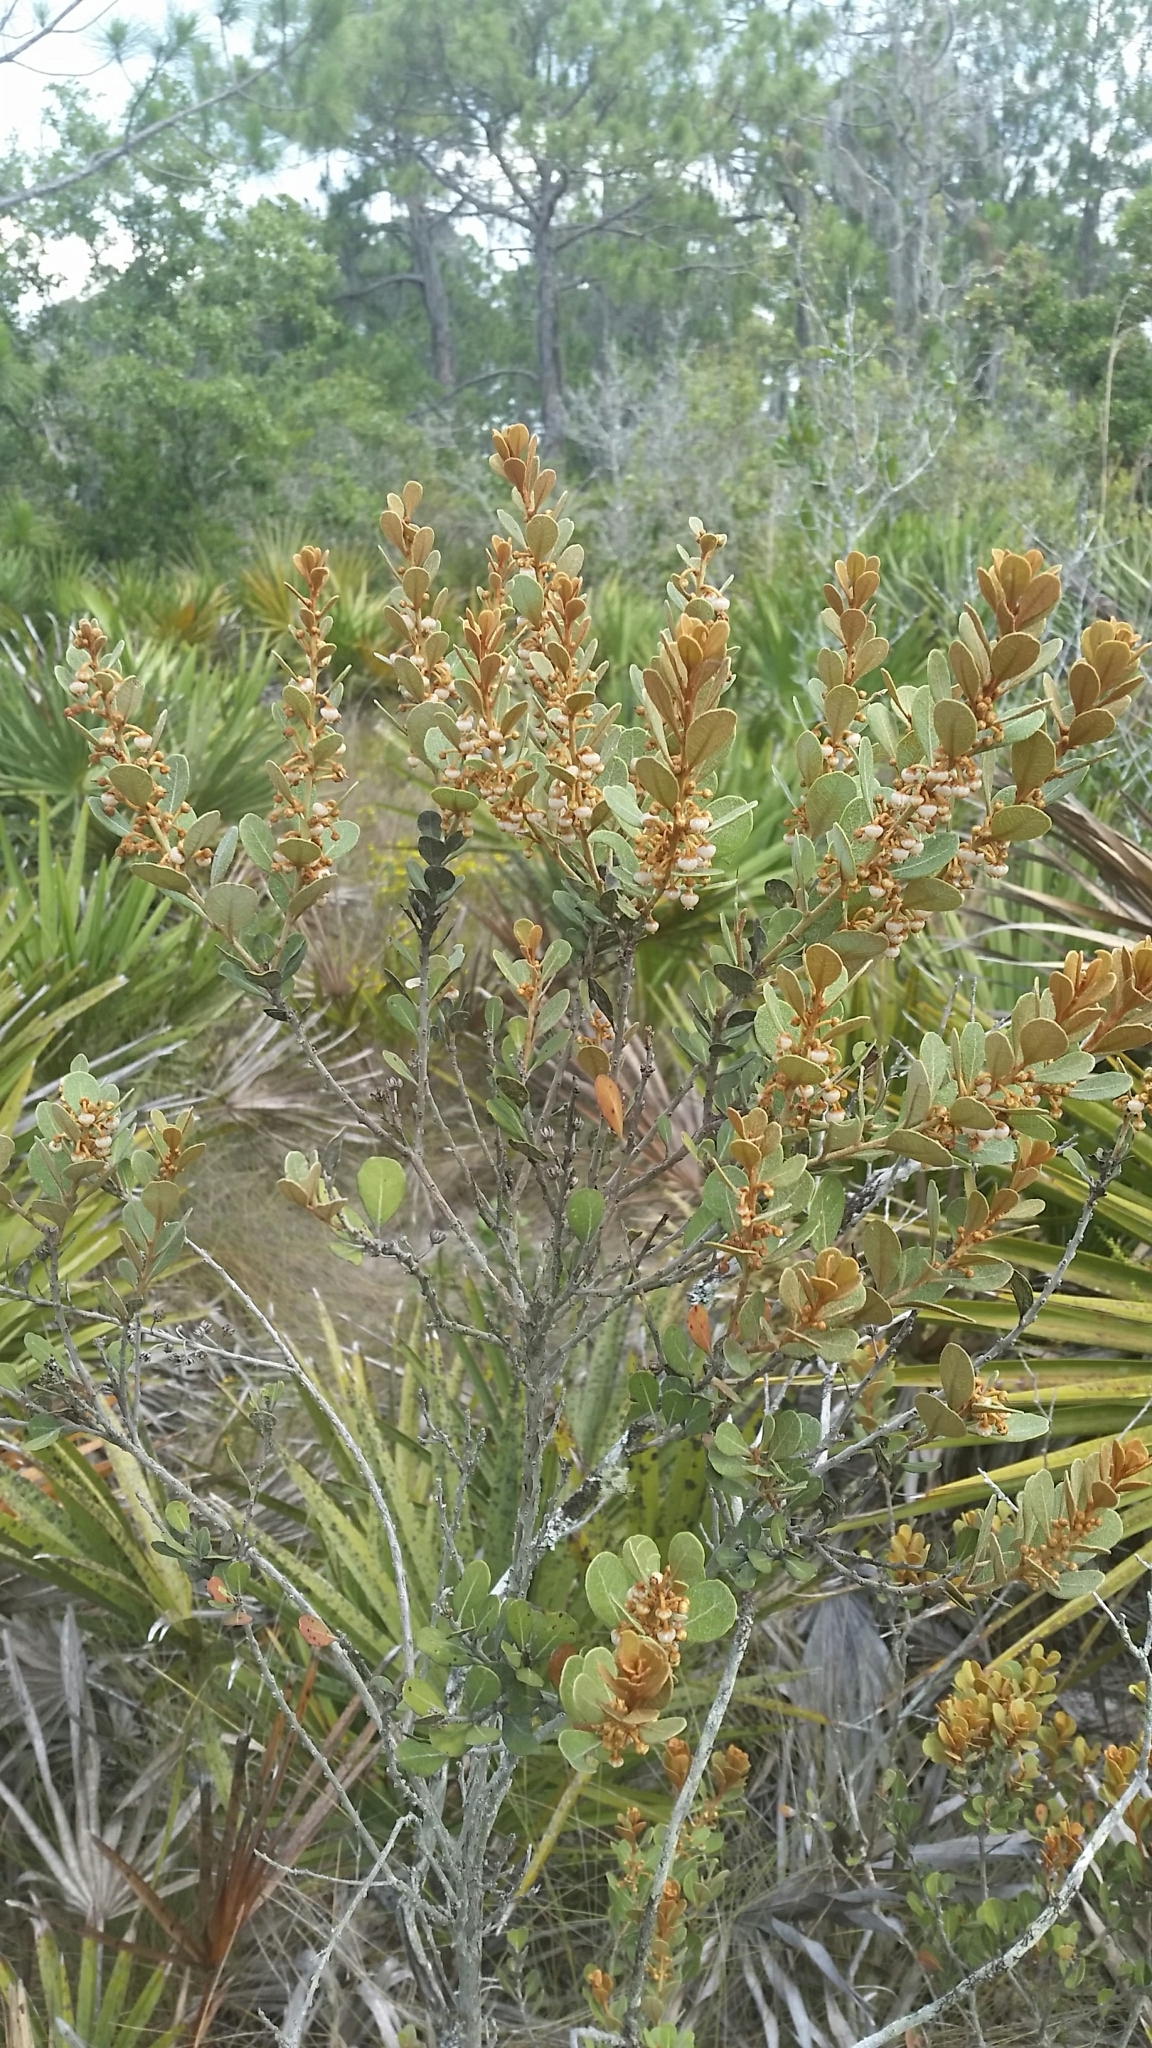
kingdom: Plantae
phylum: Tracheophyta
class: Magnoliopsida
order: Ericales
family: Ericaceae
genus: Lyonia
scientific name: Lyonia fruticosa
